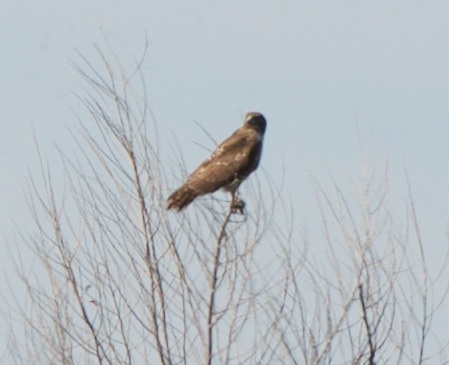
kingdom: Animalia
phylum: Chordata
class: Aves
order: Accipitriformes
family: Accipitridae
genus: Buteo
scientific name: Buteo jamaicensis
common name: Red-tailed hawk
